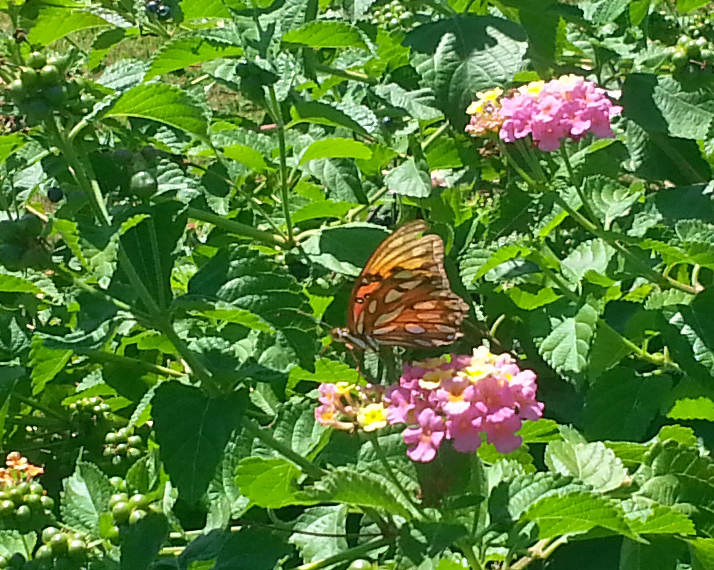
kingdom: Animalia
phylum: Arthropoda
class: Insecta
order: Lepidoptera
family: Nymphalidae
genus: Dione
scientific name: Dione vanillae
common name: Gulf fritillary
